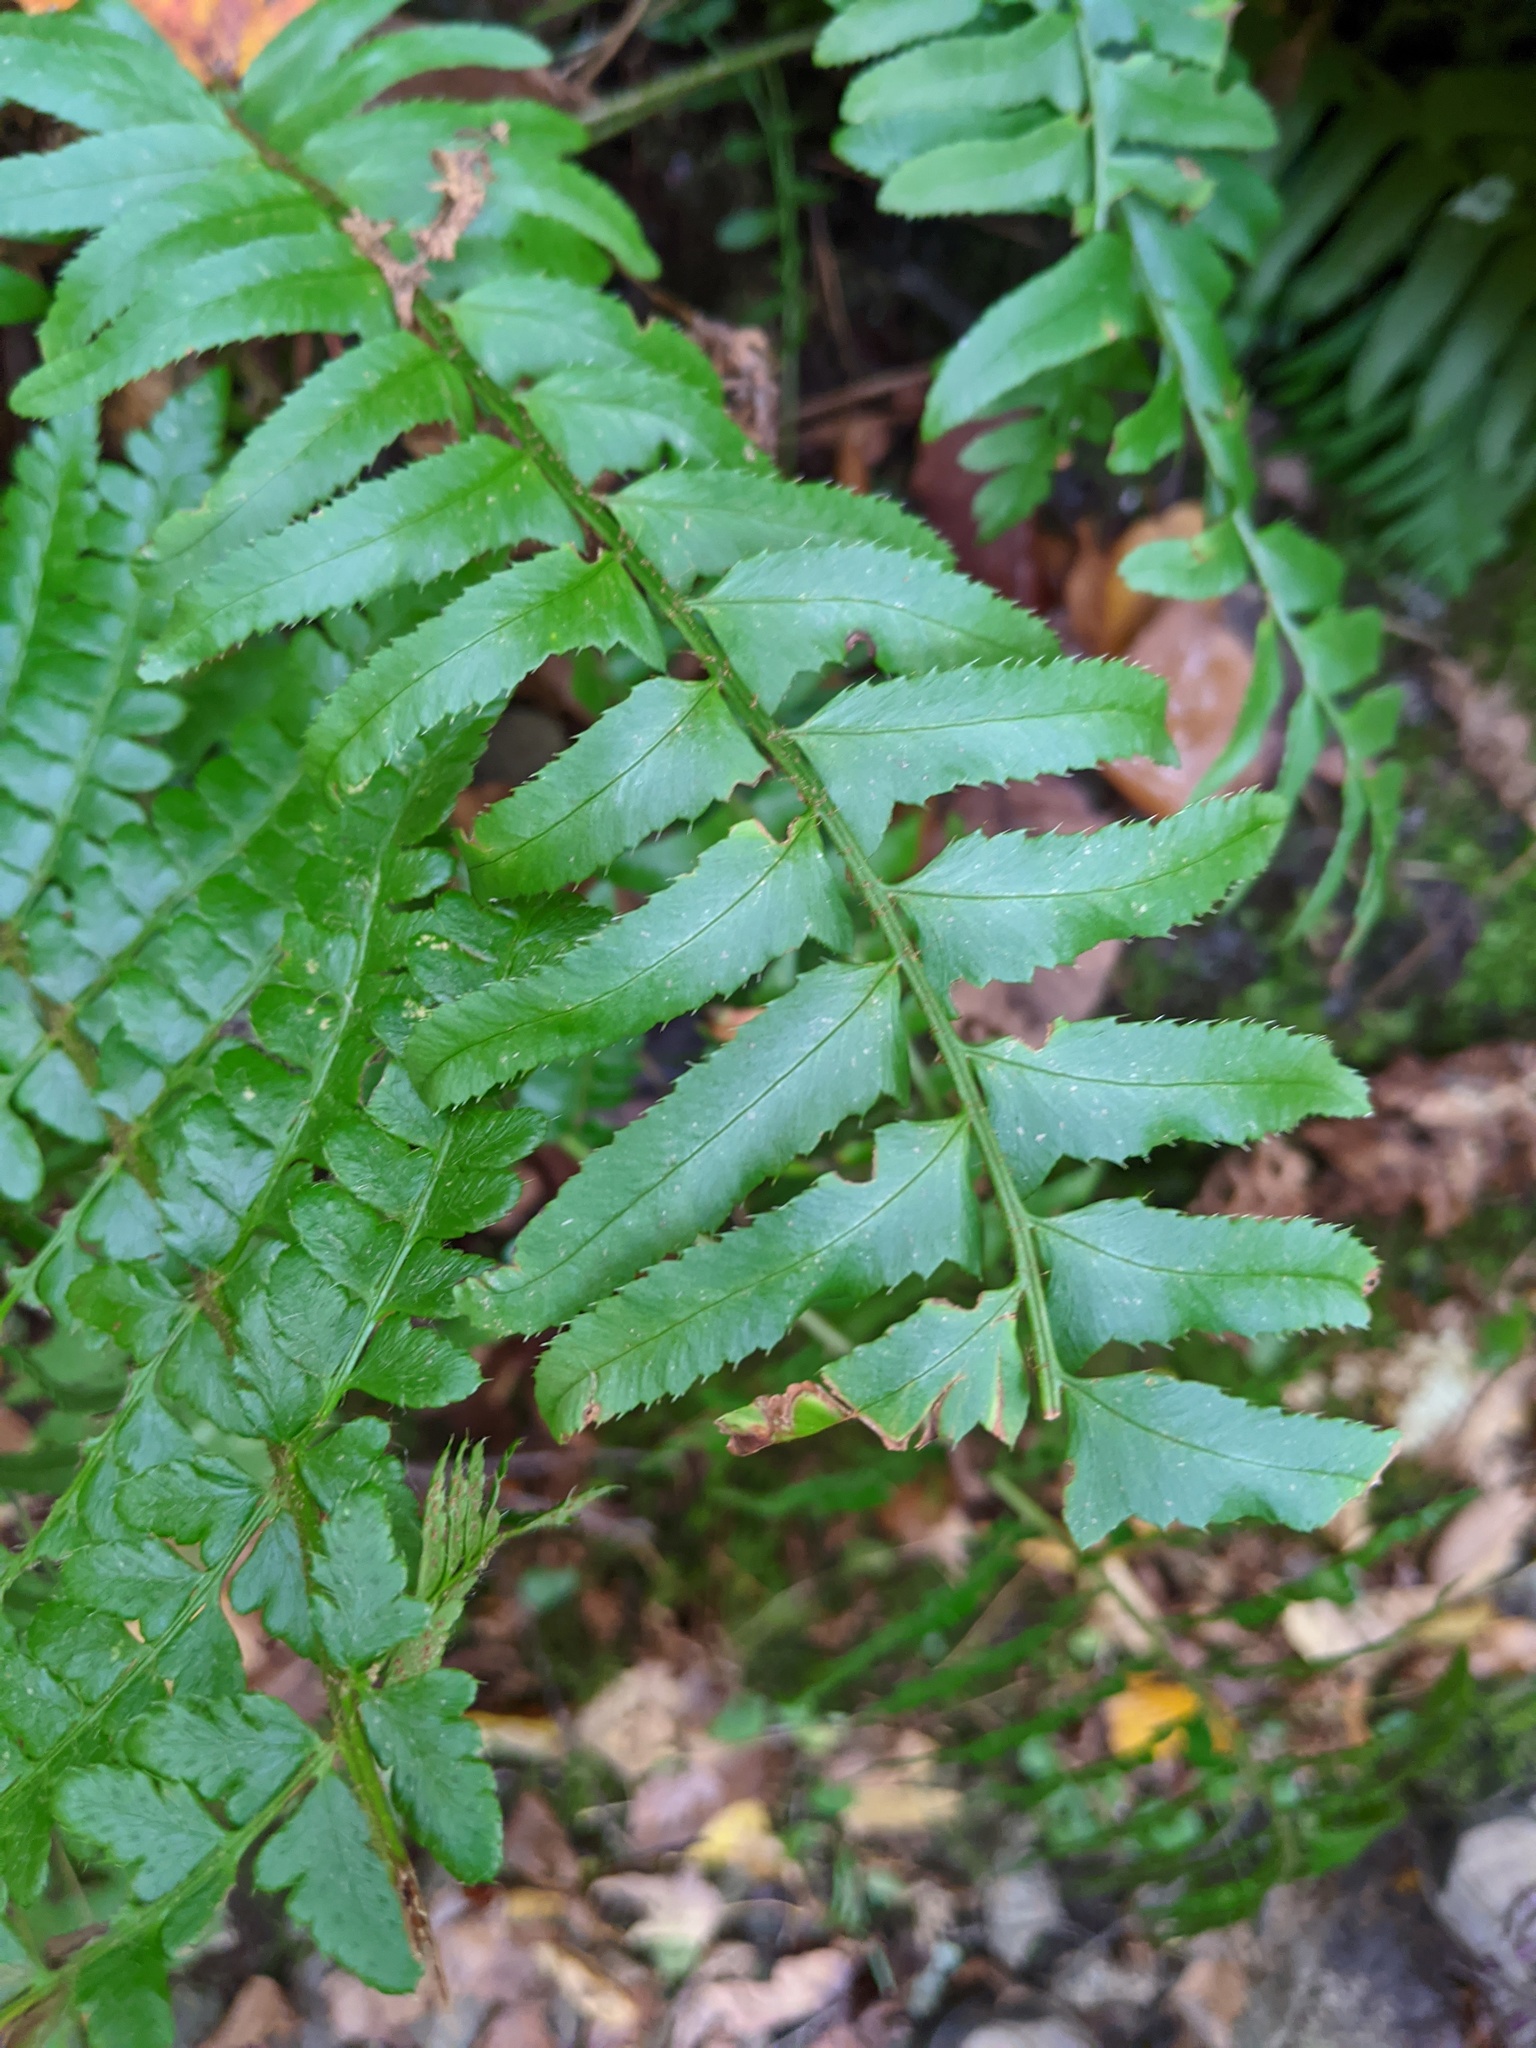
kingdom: Plantae
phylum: Tracheophyta
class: Polypodiopsida
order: Polypodiales
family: Dryopteridaceae
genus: Polystichum
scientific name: Polystichum acrostichoides
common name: Christmas fern
